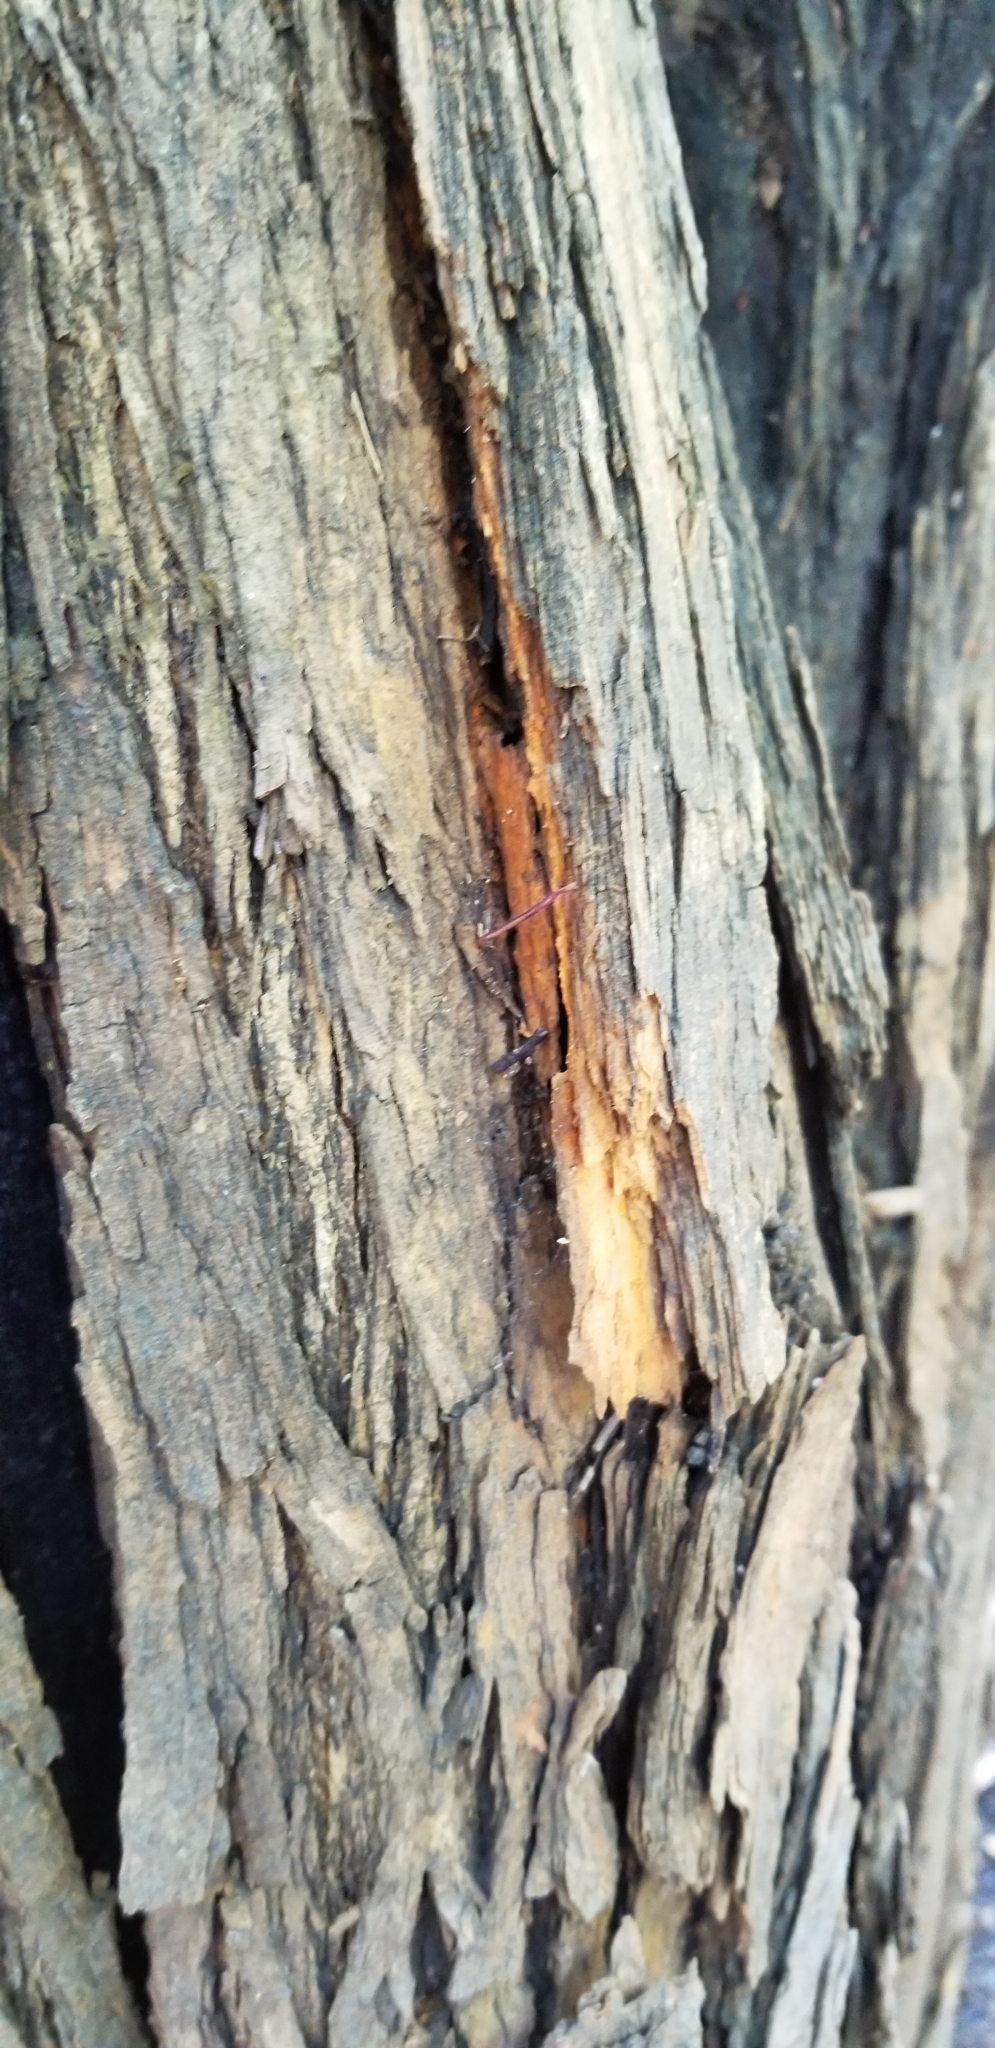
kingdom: Plantae
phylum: Tracheophyta
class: Magnoliopsida
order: Rosales
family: Moraceae
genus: Maclura
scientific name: Maclura pomifera
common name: Osage-orange
